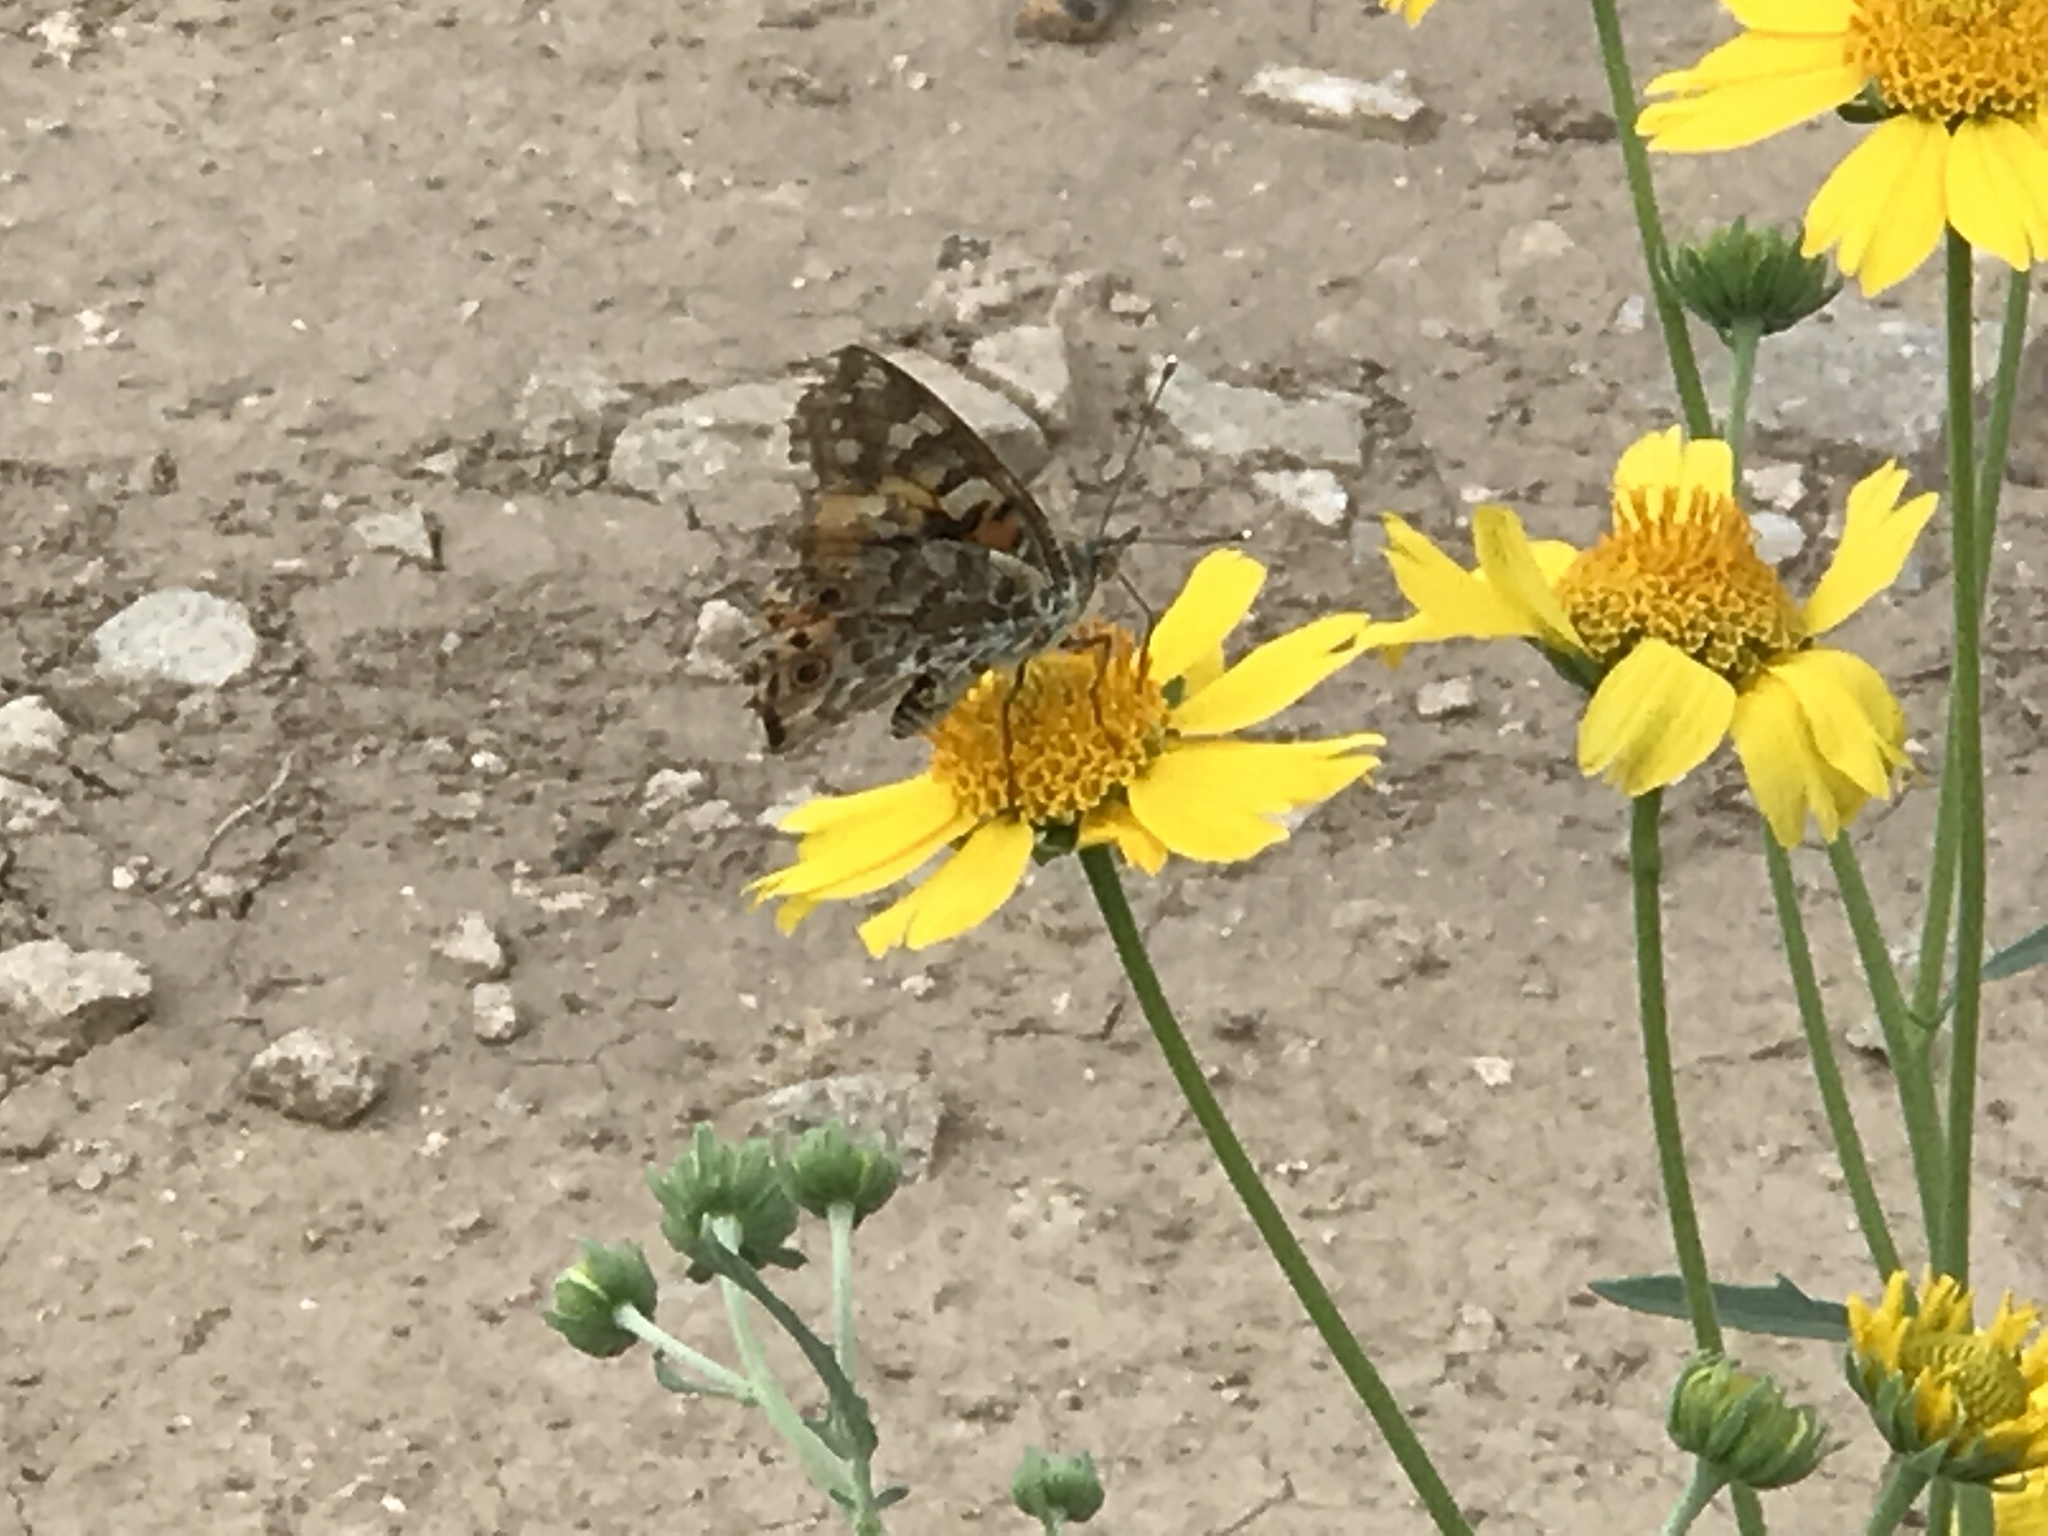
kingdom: Animalia
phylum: Arthropoda
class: Insecta
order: Lepidoptera
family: Nymphalidae
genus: Vanessa
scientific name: Vanessa cardui
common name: Painted lady
